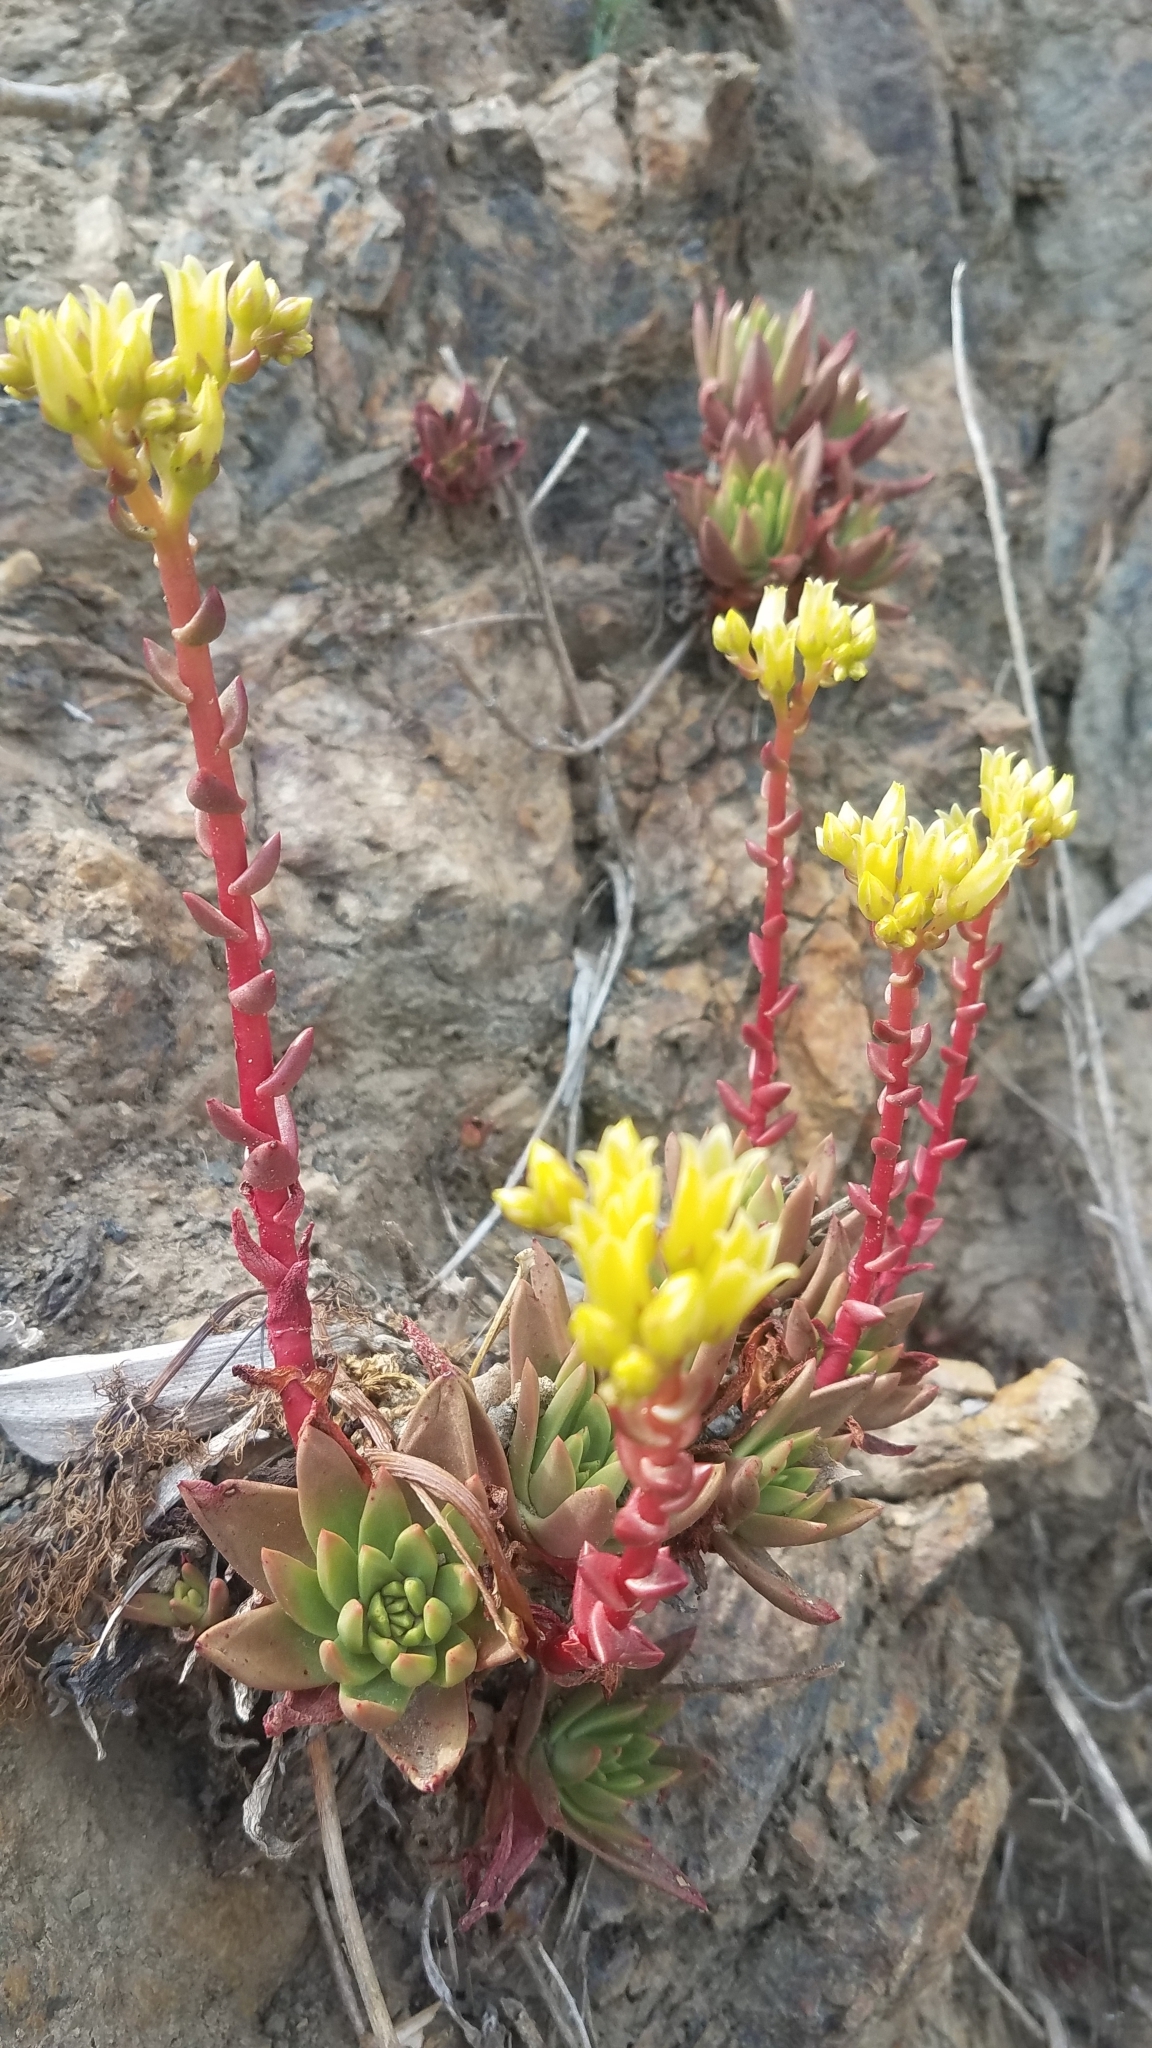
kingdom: Plantae
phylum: Tracheophyta
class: Magnoliopsida
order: Saxifragales
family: Crassulaceae
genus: Dudleya
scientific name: Dudleya farinosa
